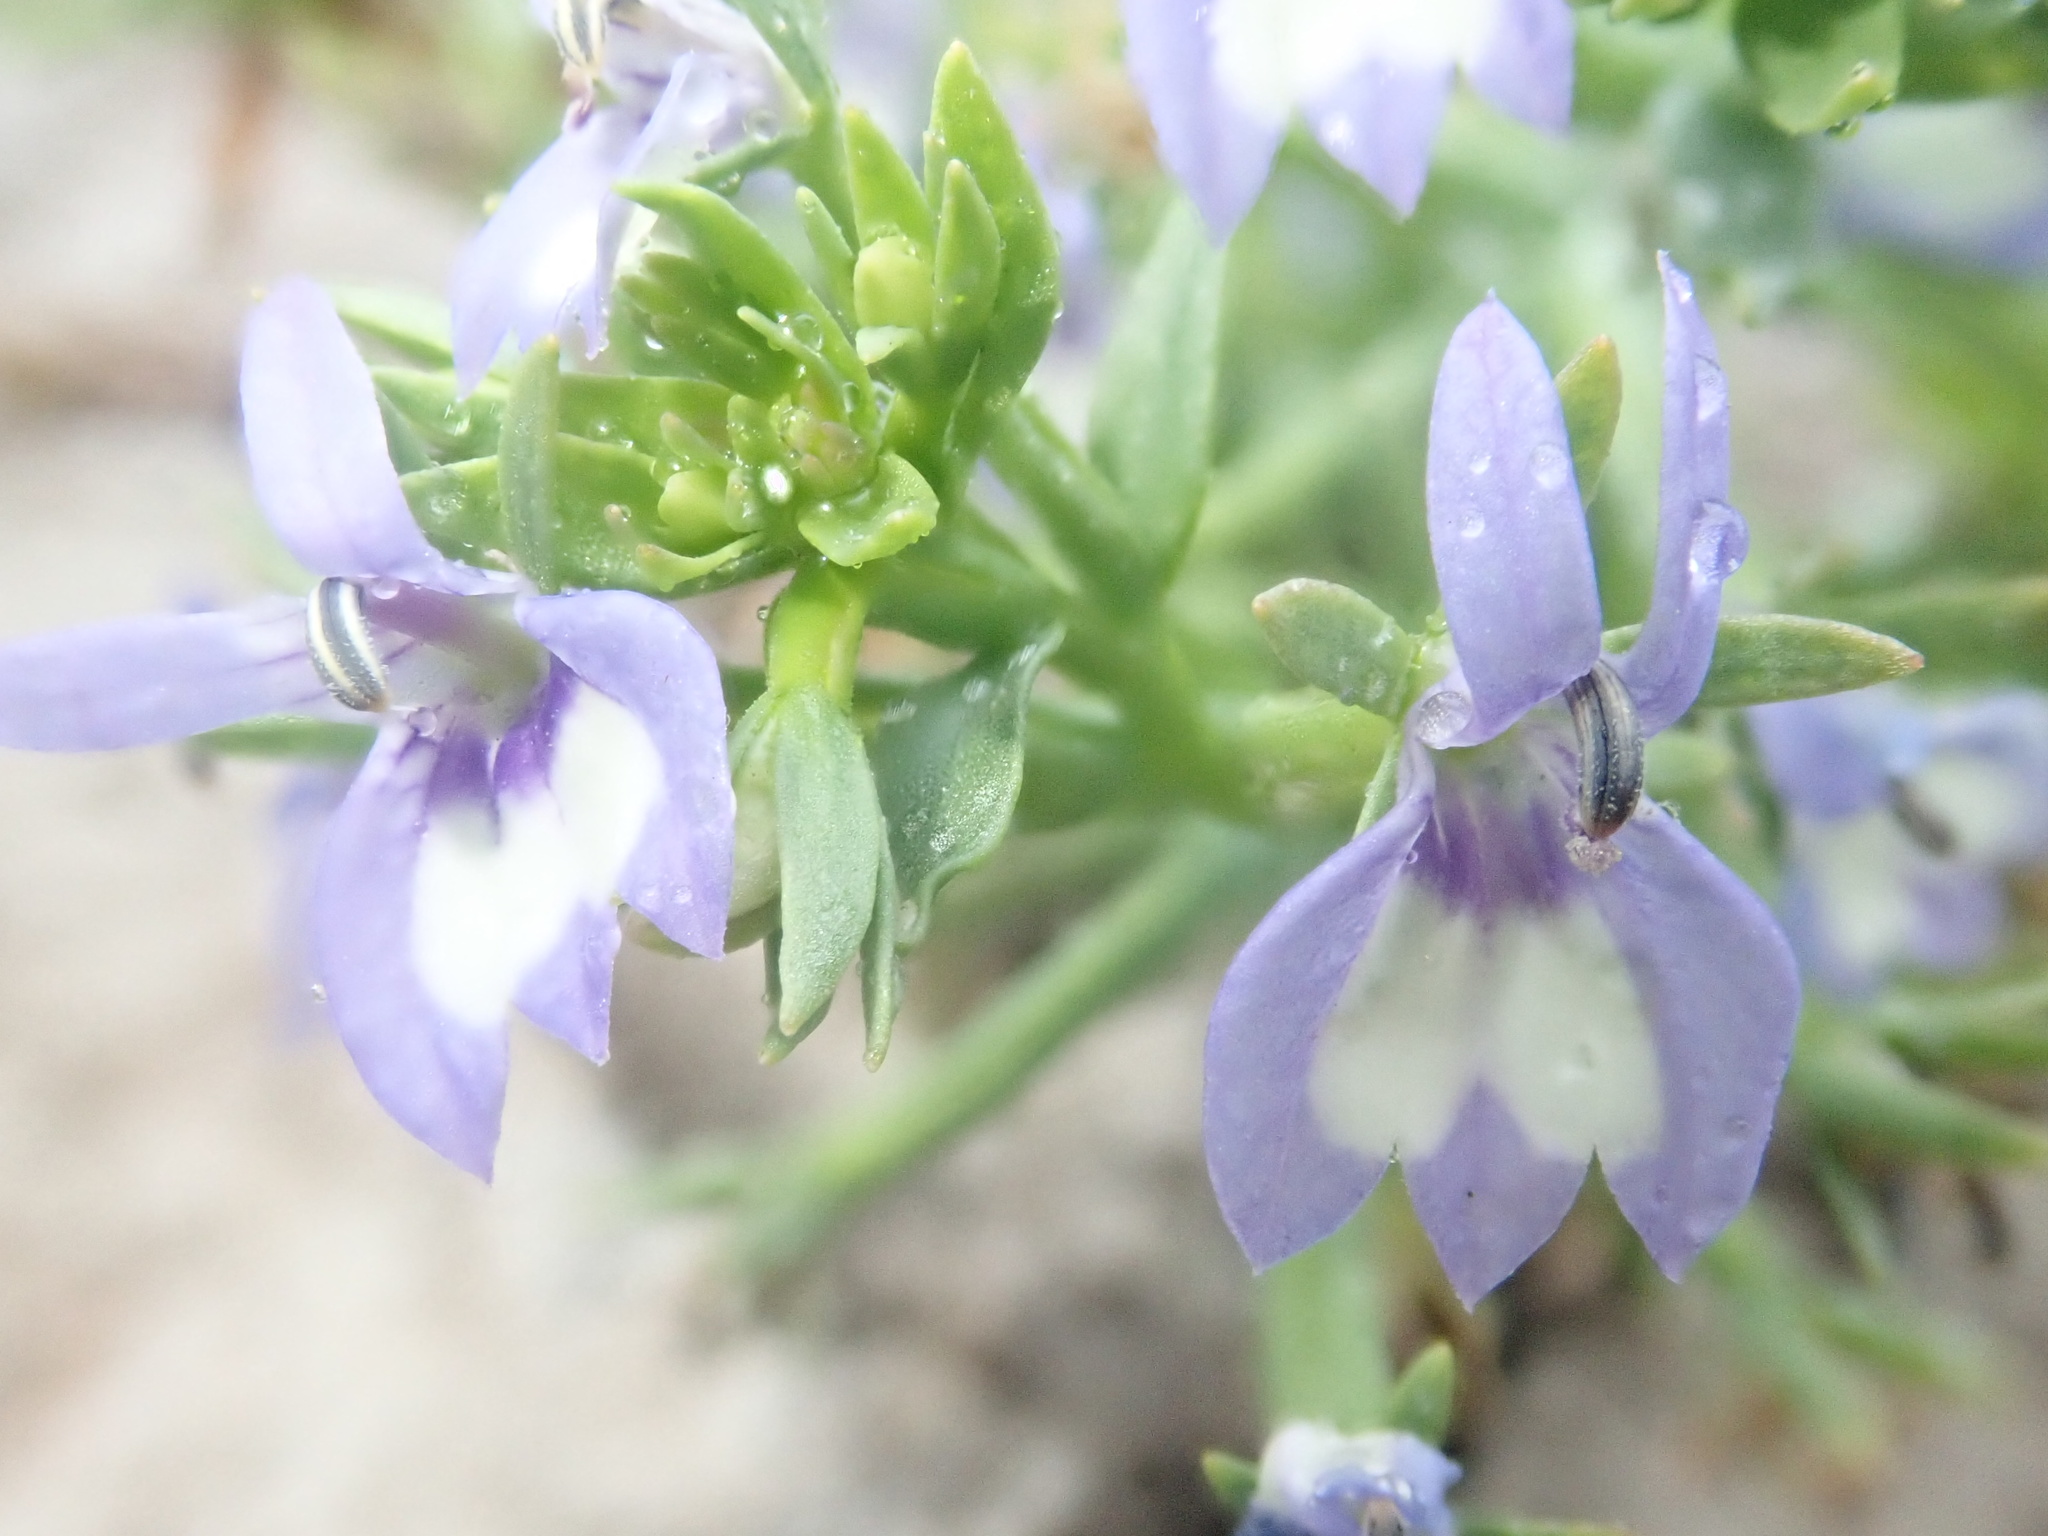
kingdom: Plantae
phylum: Tracheophyta
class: Magnoliopsida
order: Asterales
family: Campanulaceae
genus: Downingia
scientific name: Downingia elegans
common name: Californian lobelia
